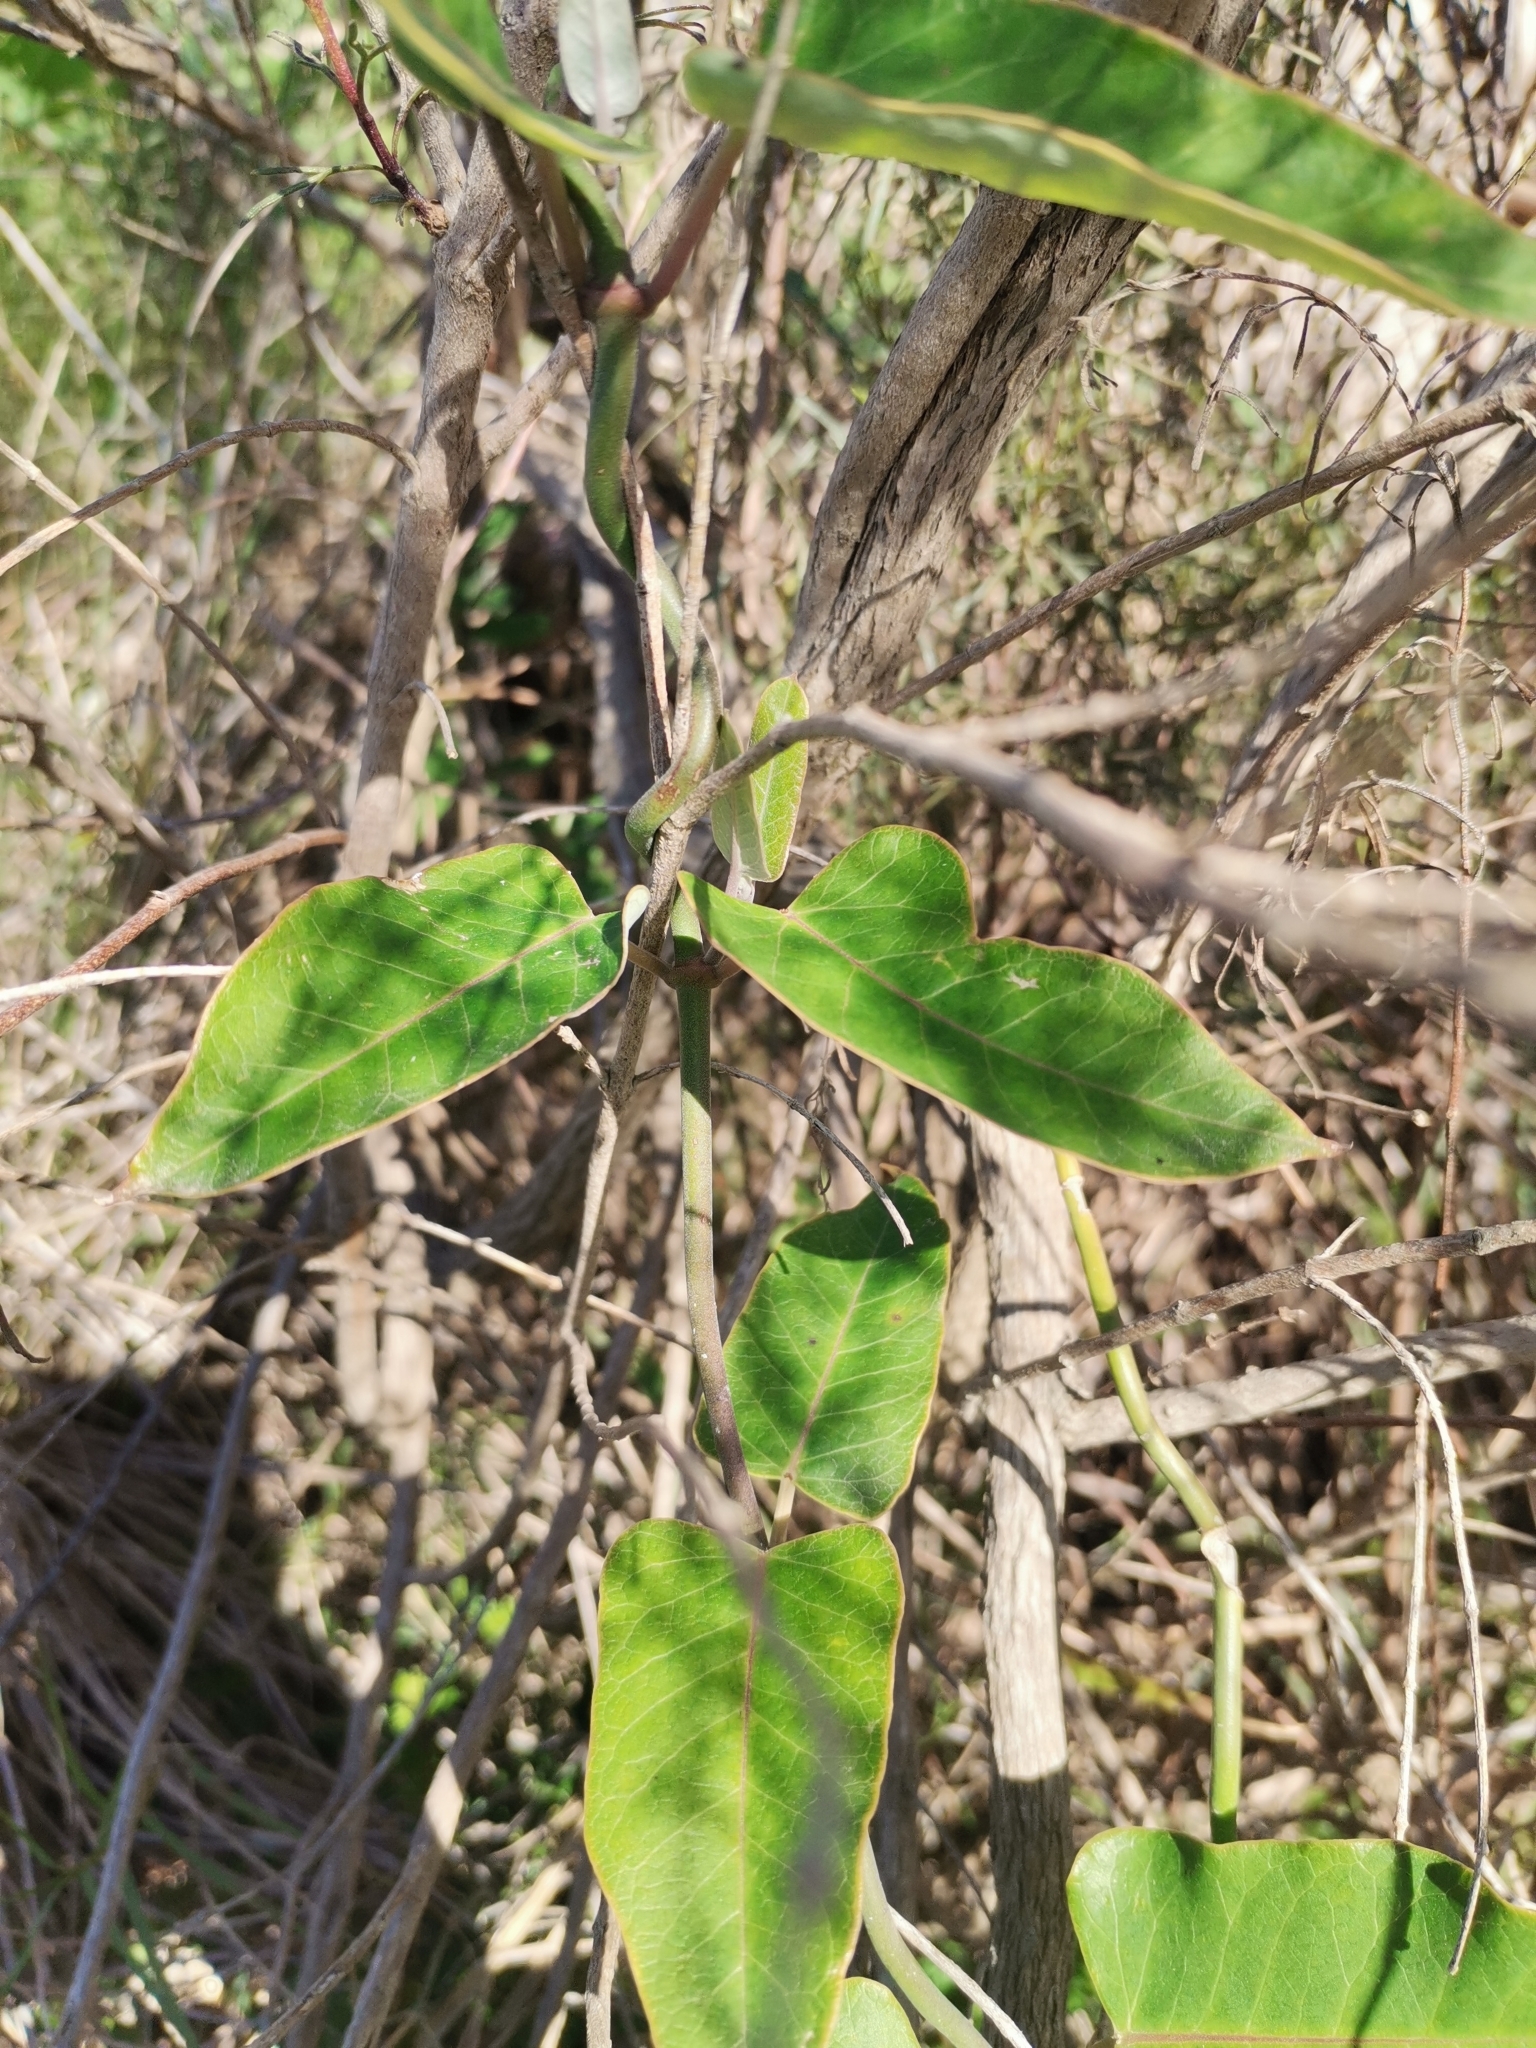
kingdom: Plantae
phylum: Tracheophyta
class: Magnoliopsida
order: Gentianales
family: Apocynaceae
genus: Araujia
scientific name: Araujia sericifera
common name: White bladderflower
